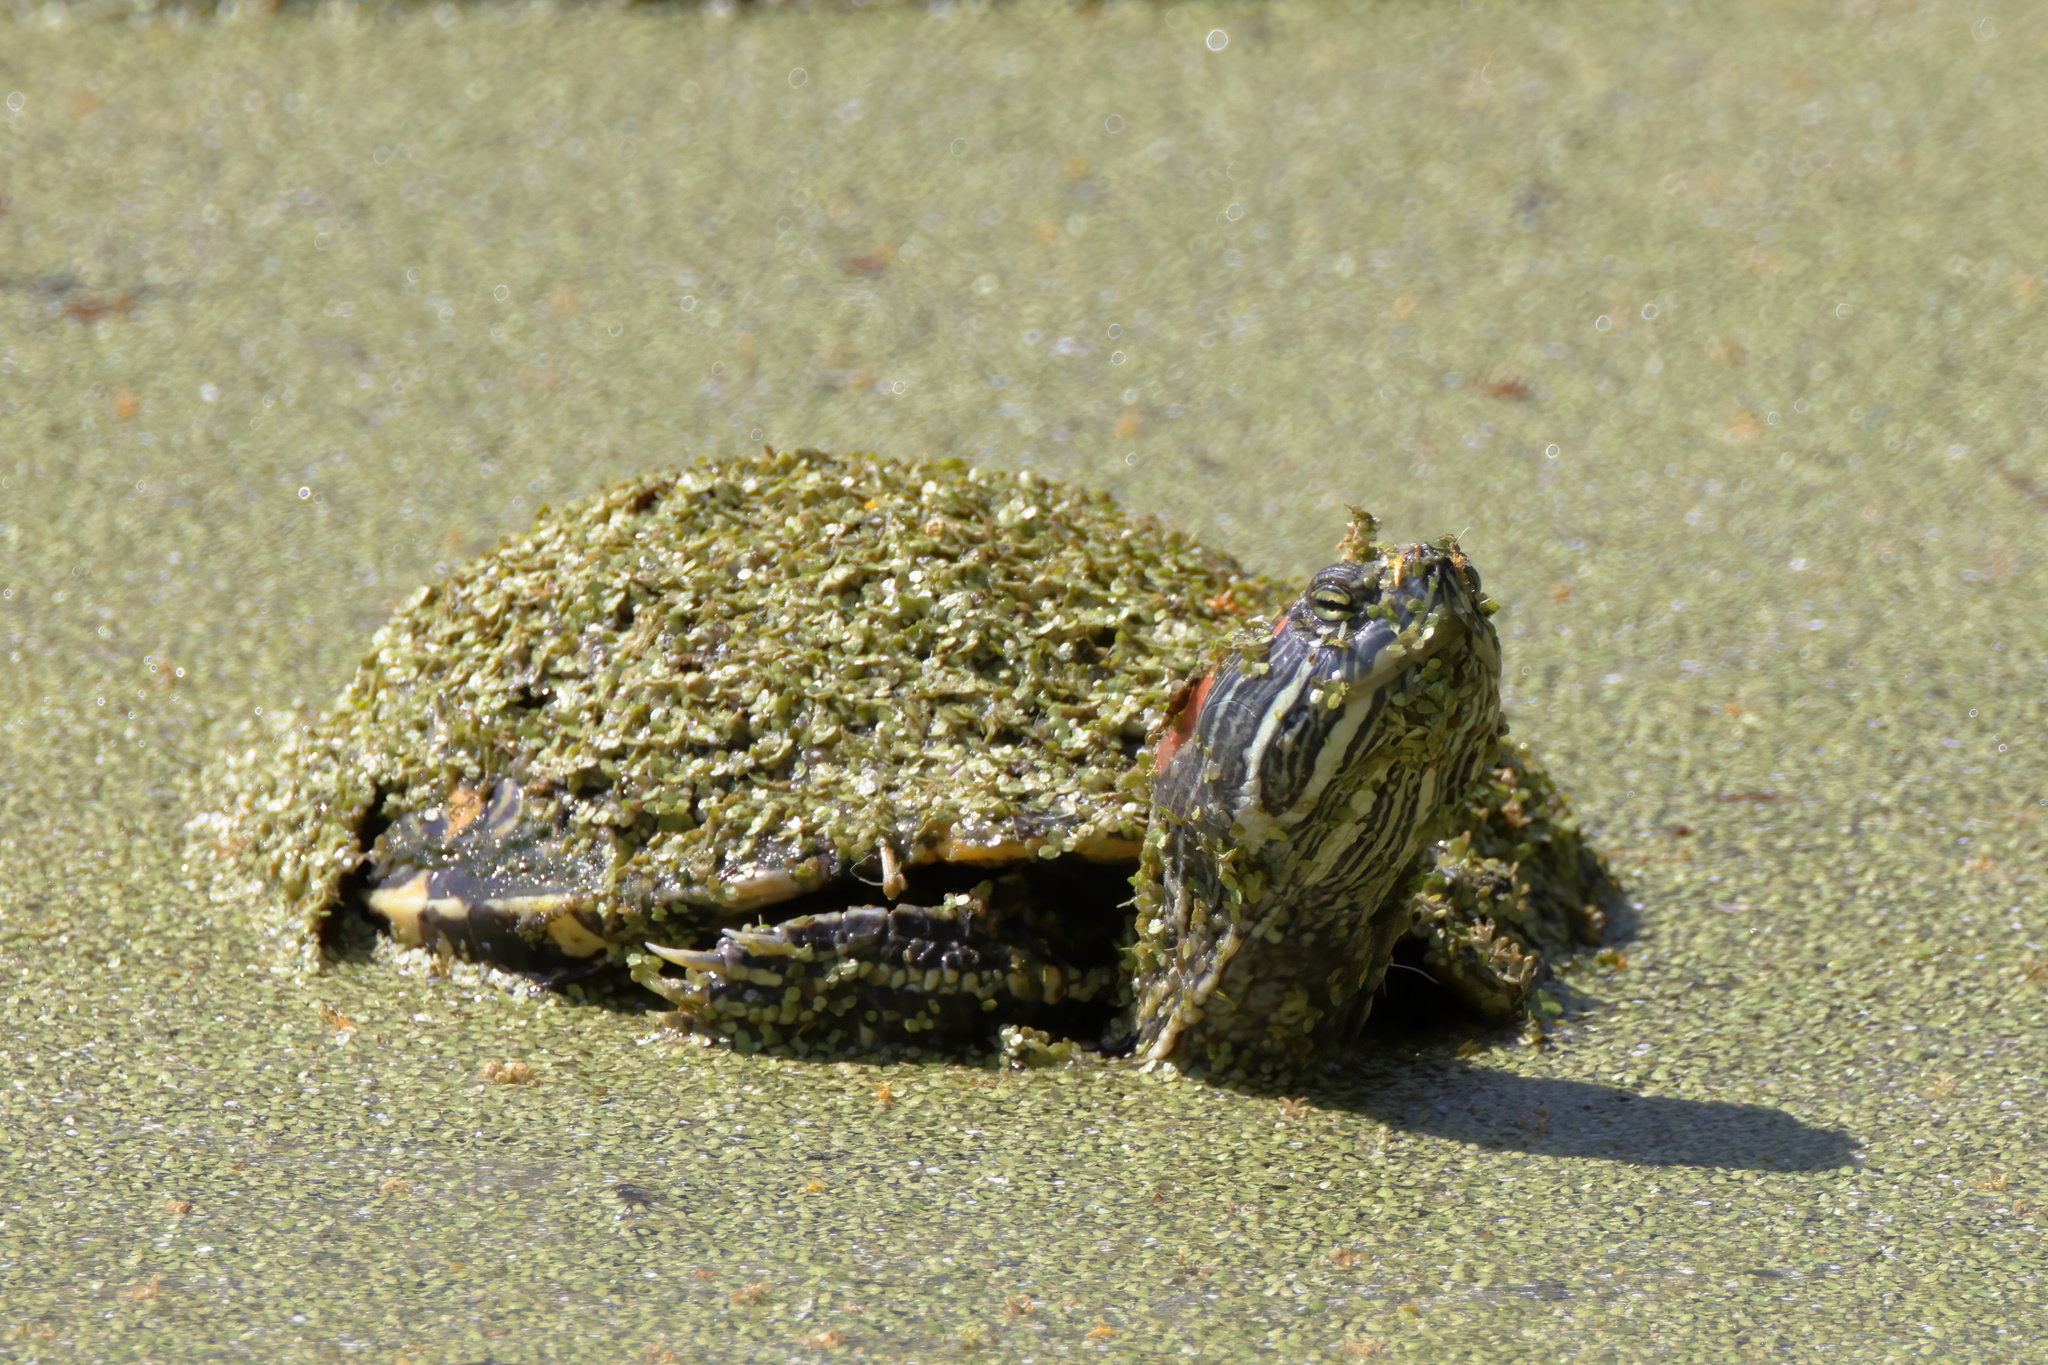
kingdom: Animalia
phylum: Chordata
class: Testudines
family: Emydidae
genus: Trachemys
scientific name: Trachemys scripta
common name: Slider
